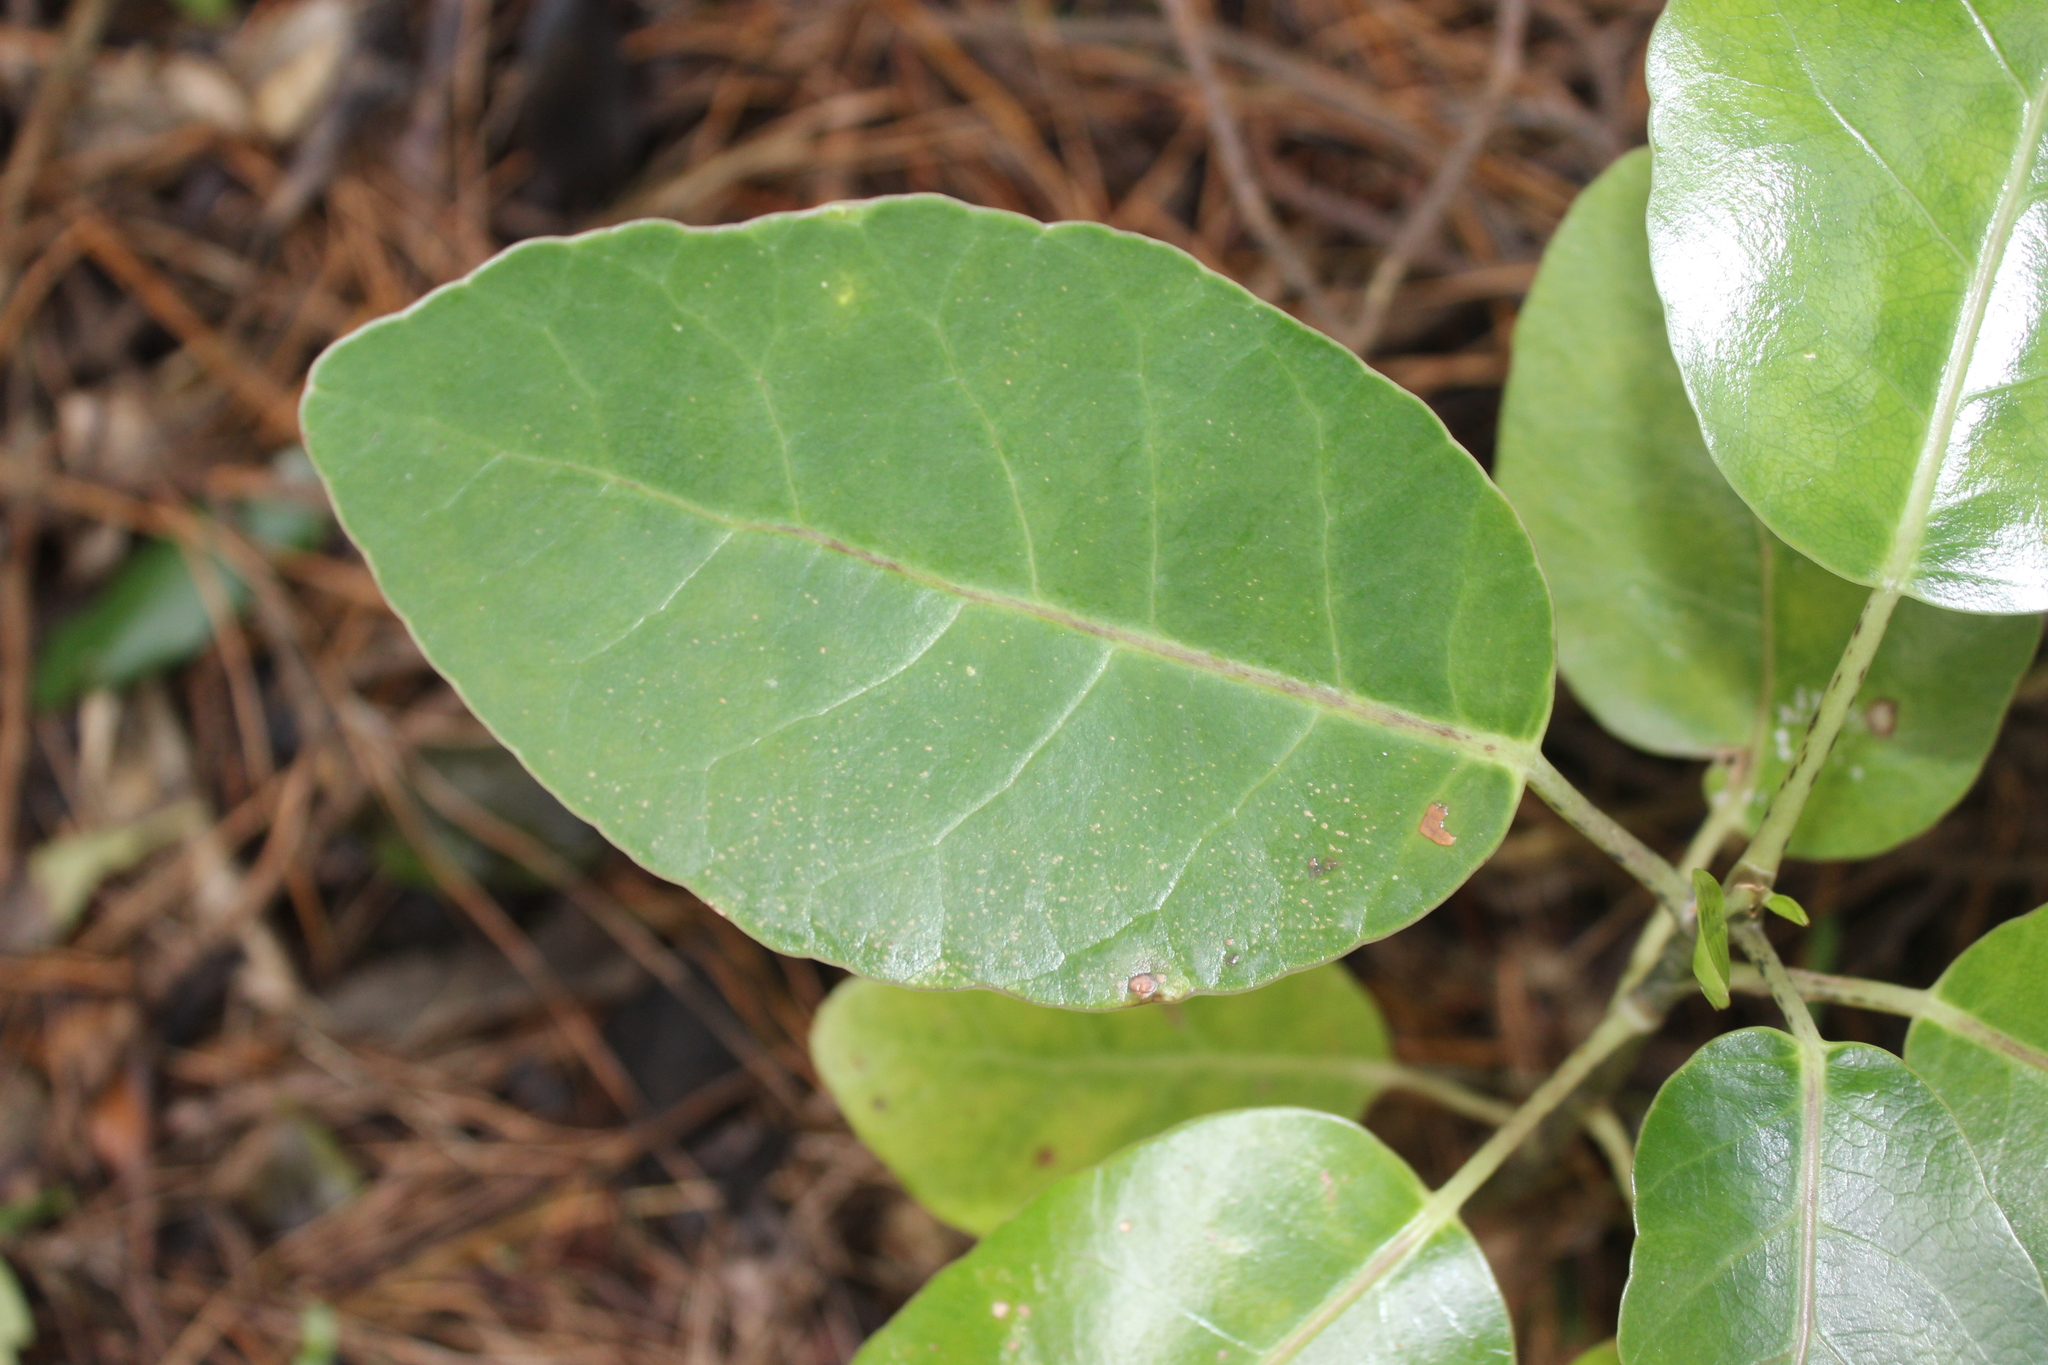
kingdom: Plantae
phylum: Tracheophyta
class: Magnoliopsida
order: Apiales
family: Araliaceae
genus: Meryta
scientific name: Meryta sinclairii
